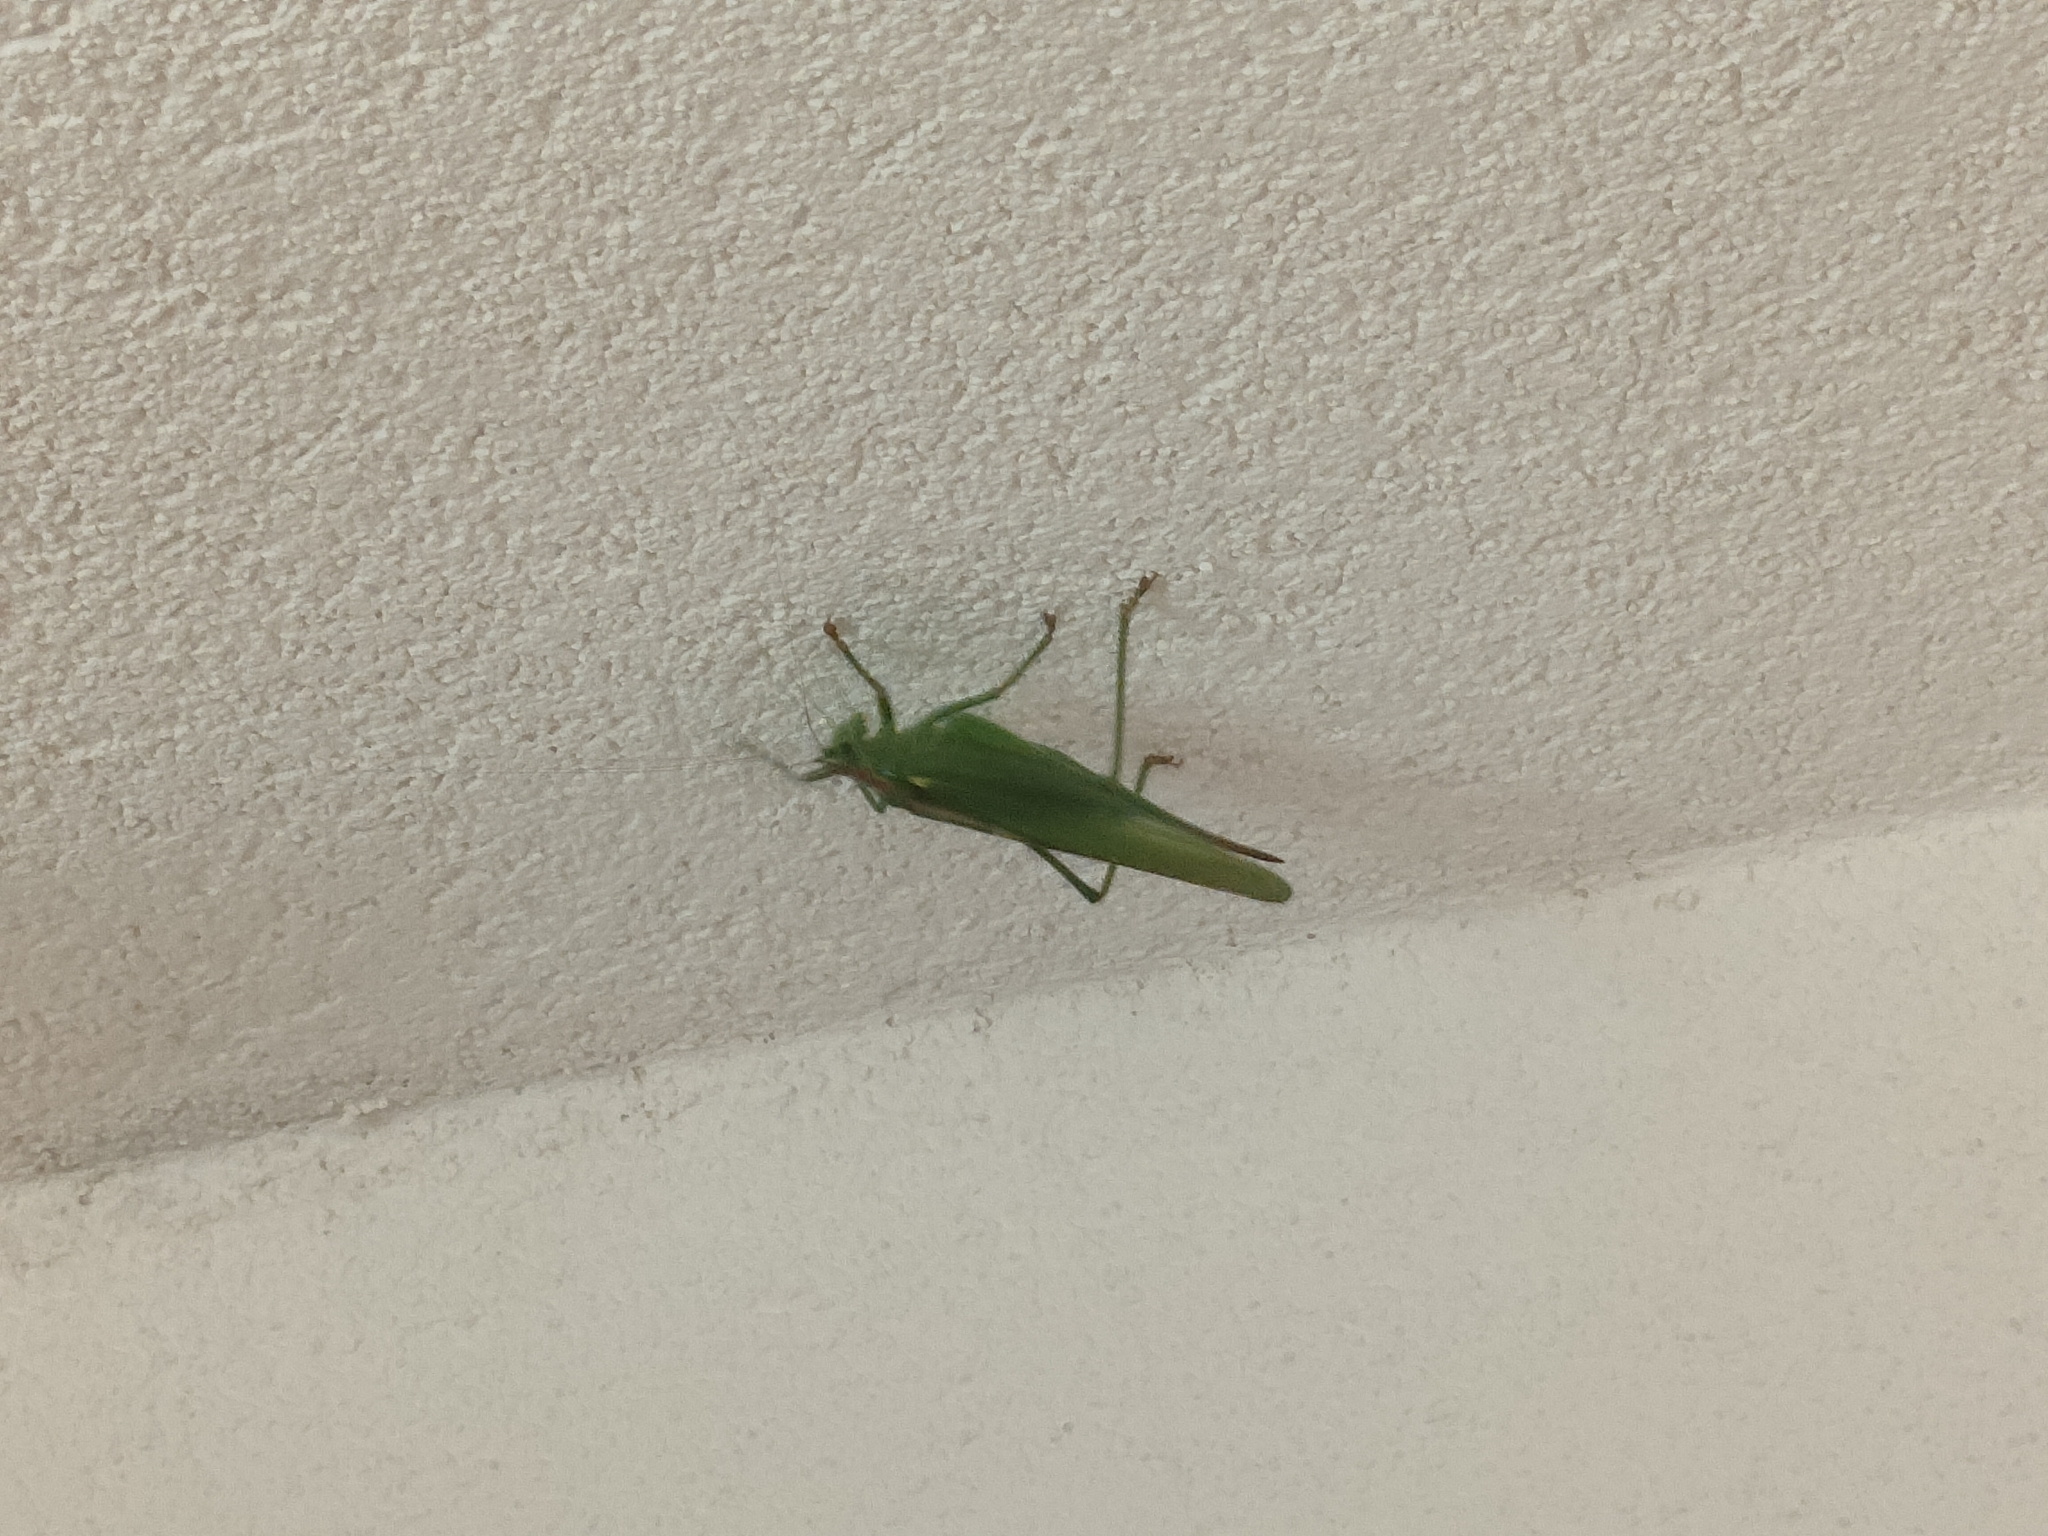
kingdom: Animalia
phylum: Arthropoda
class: Insecta
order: Orthoptera
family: Tettigoniidae
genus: Tettigonia
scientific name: Tettigonia viridissima
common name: Great green bush-cricket
